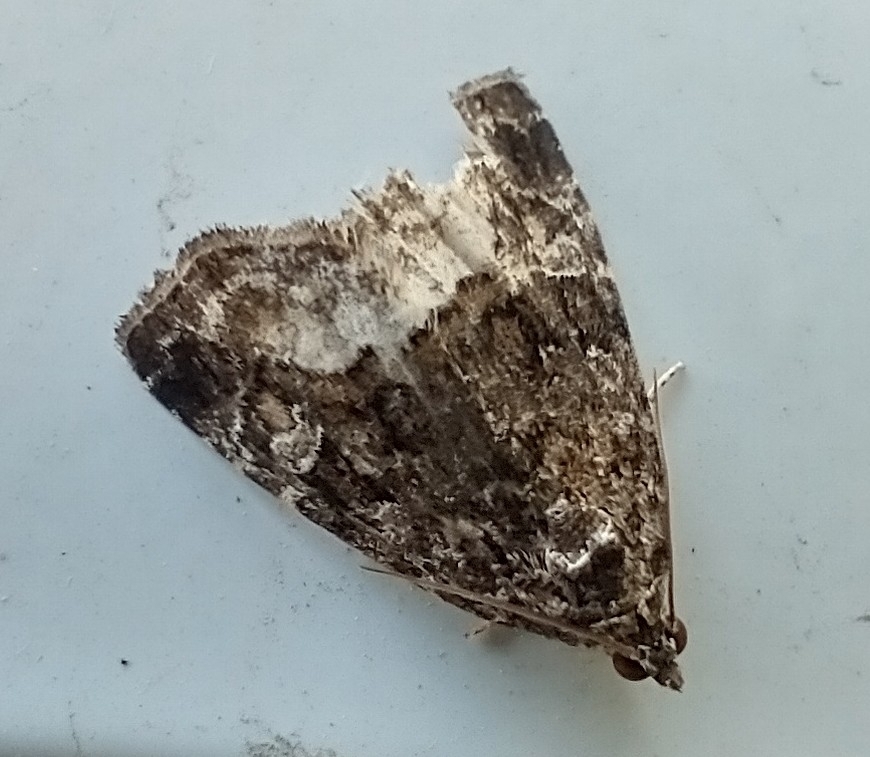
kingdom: Animalia
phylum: Arthropoda
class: Insecta
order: Lepidoptera
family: Noctuidae
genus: Deltote
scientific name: Deltote pygarga
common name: Marbled white spot
